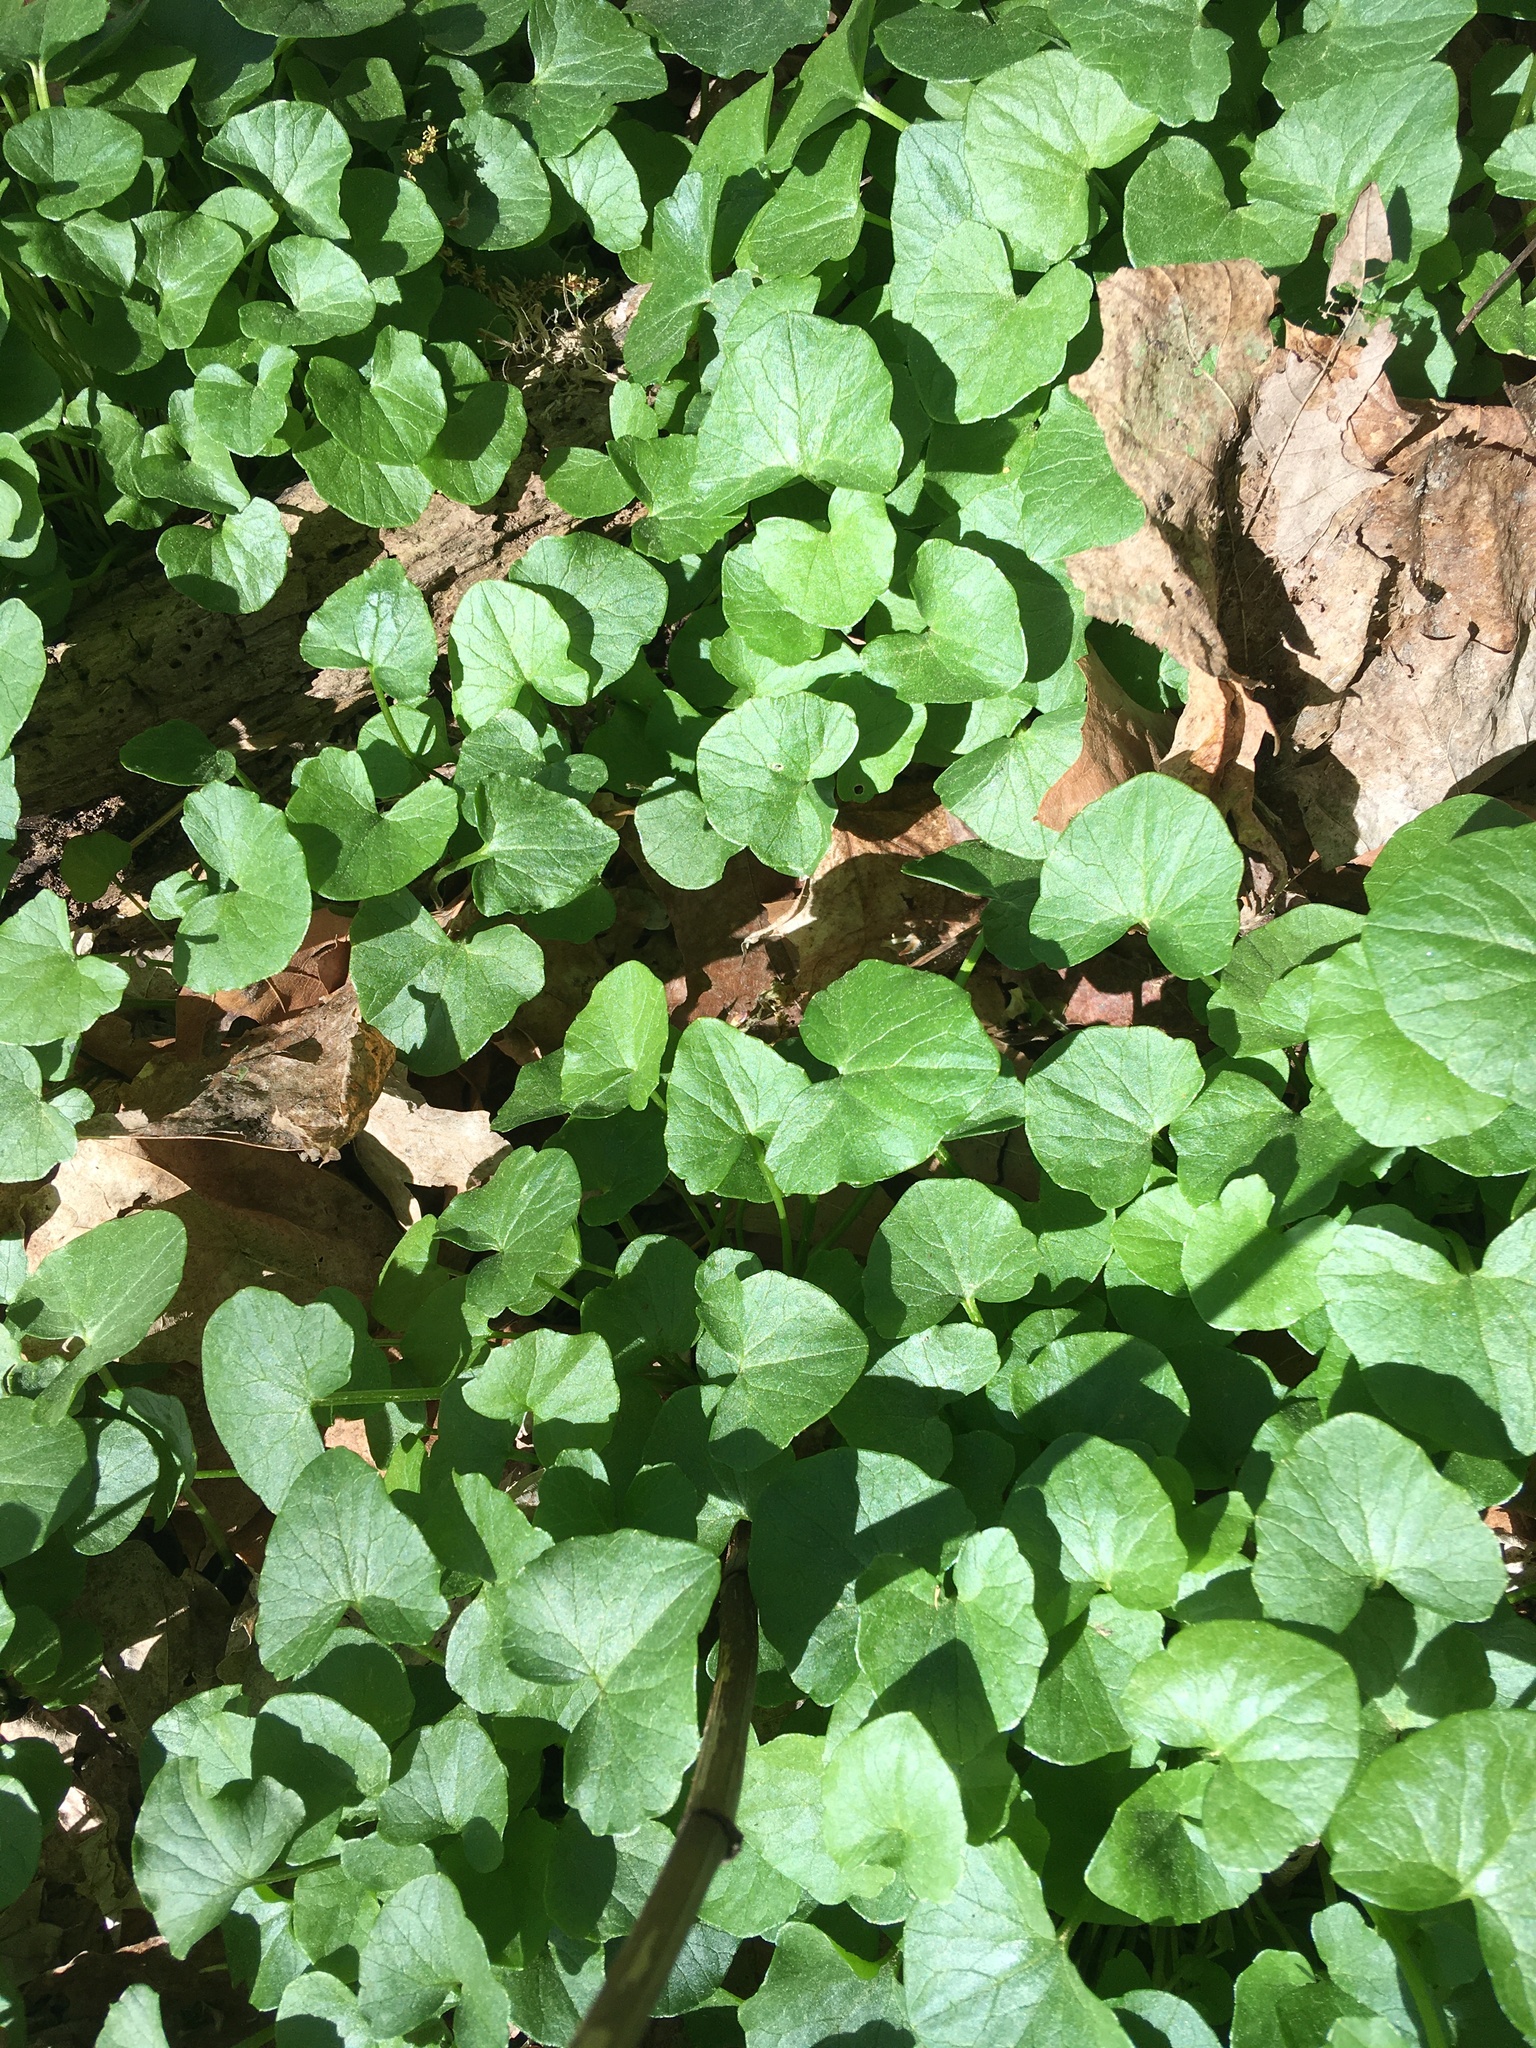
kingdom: Plantae
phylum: Tracheophyta
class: Magnoliopsida
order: Ranunculales
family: Ranunculaceae
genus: Ficaria
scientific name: Ficaria verna
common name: Lesser celandine
